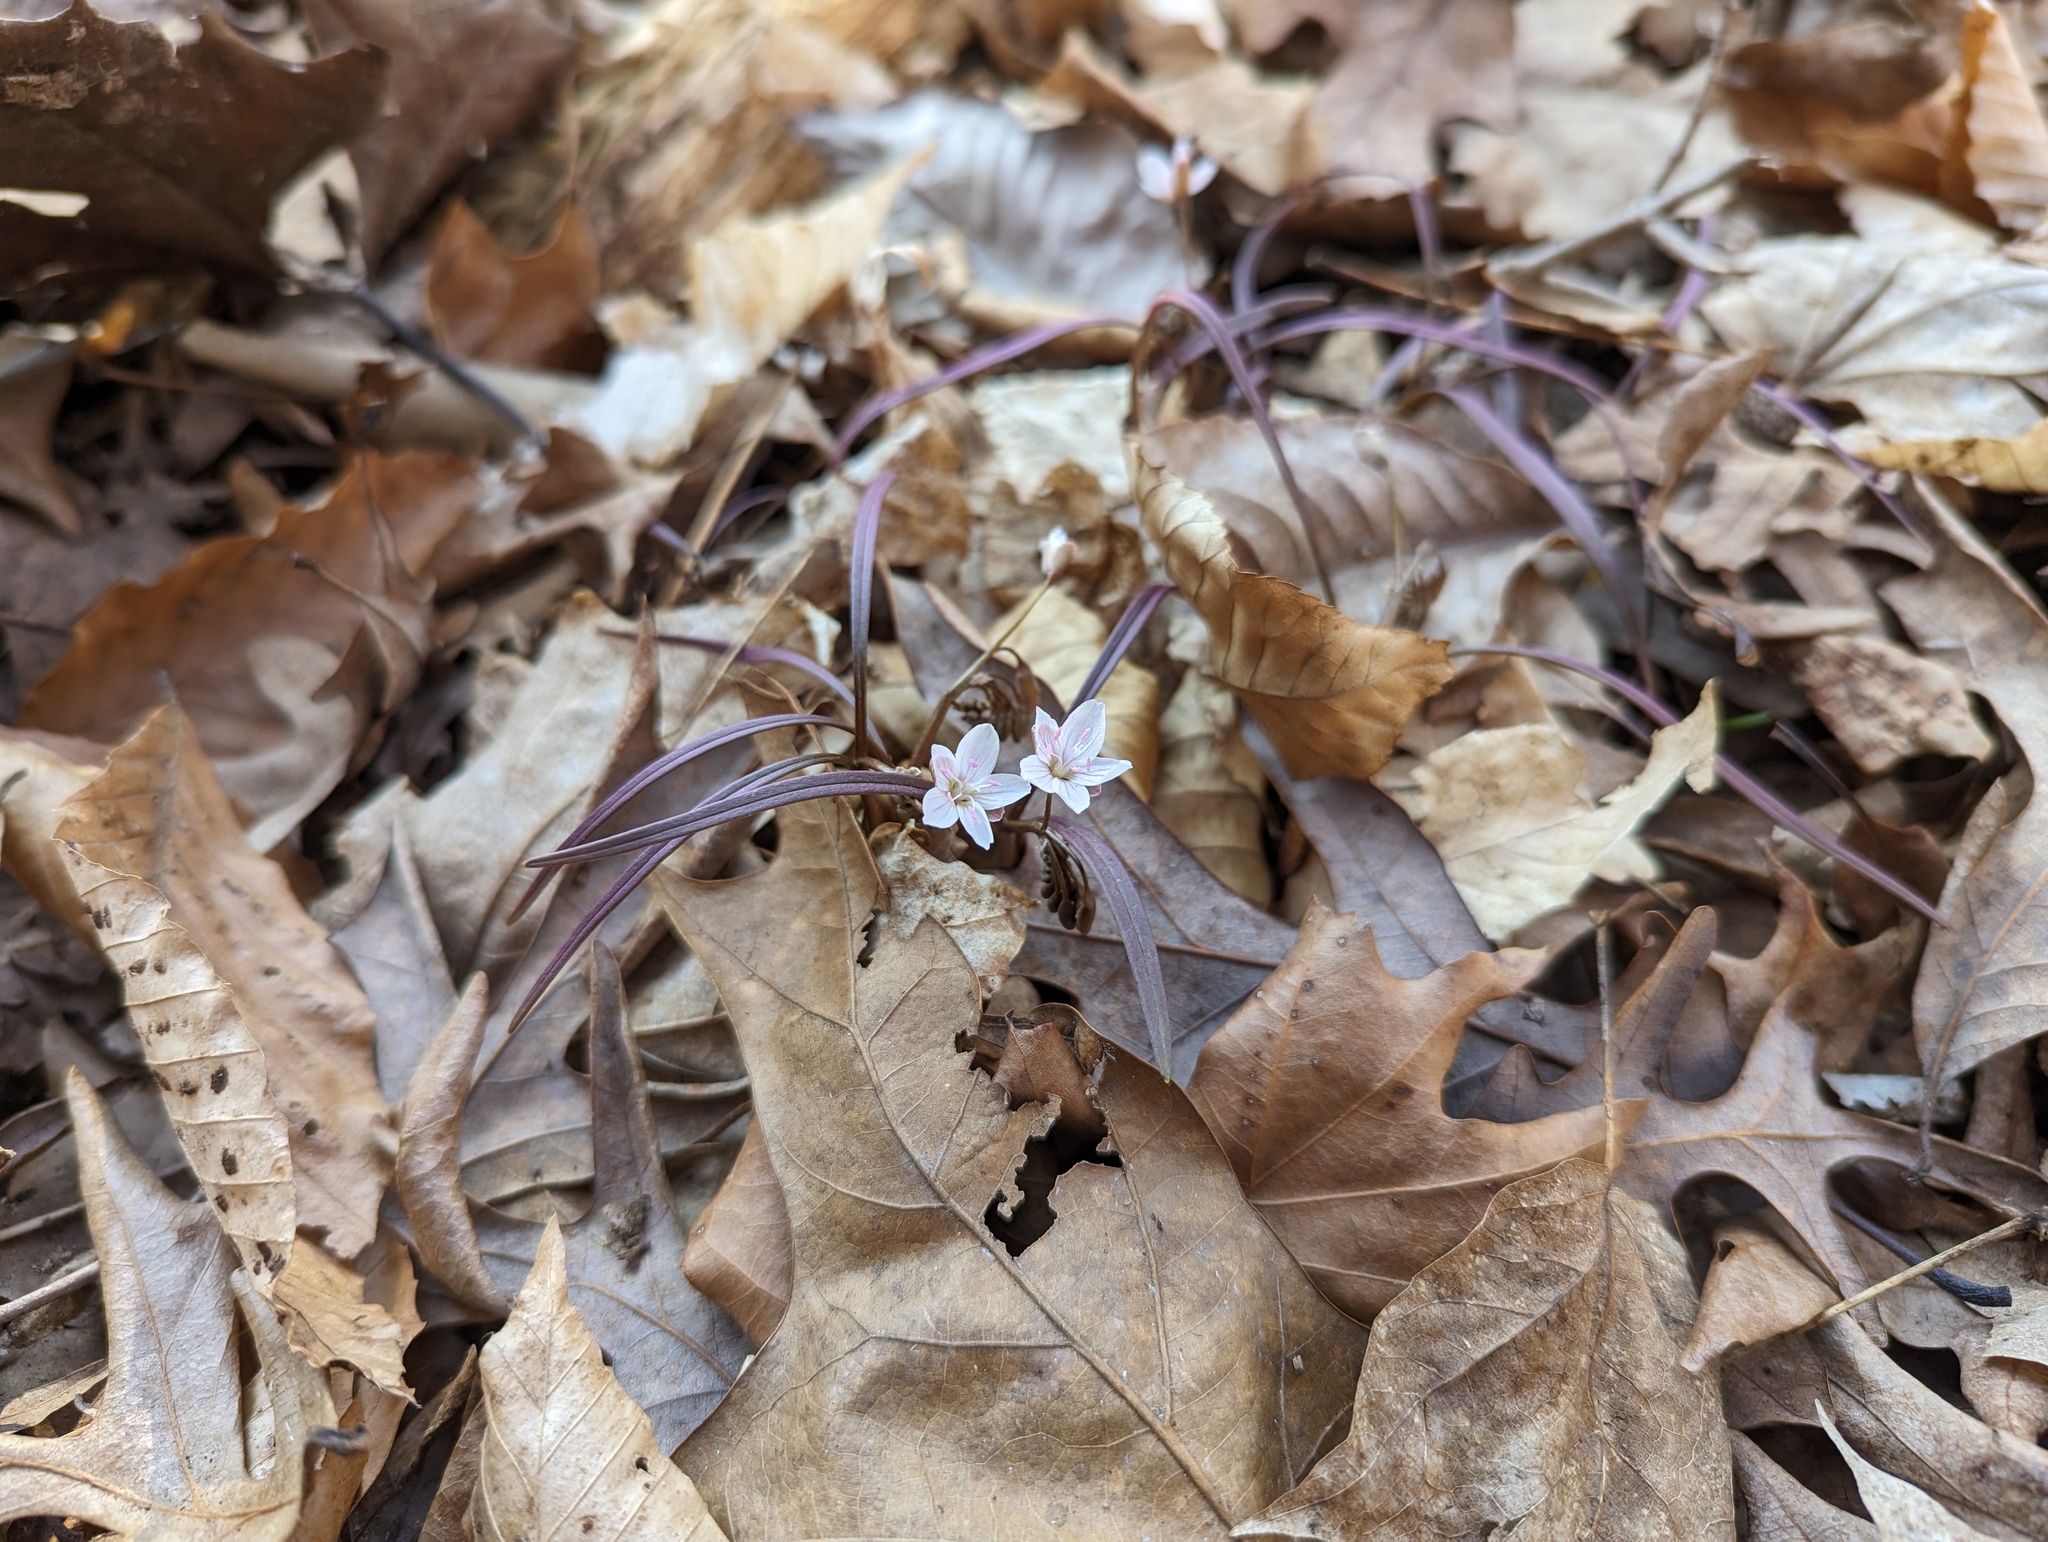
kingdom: Plantae
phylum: Tracheophyta
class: Magnoliopsida
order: Caryophyllales
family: Montiaceae
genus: Claytonia
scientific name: Claytonia virginica
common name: Virginia springbeauty
